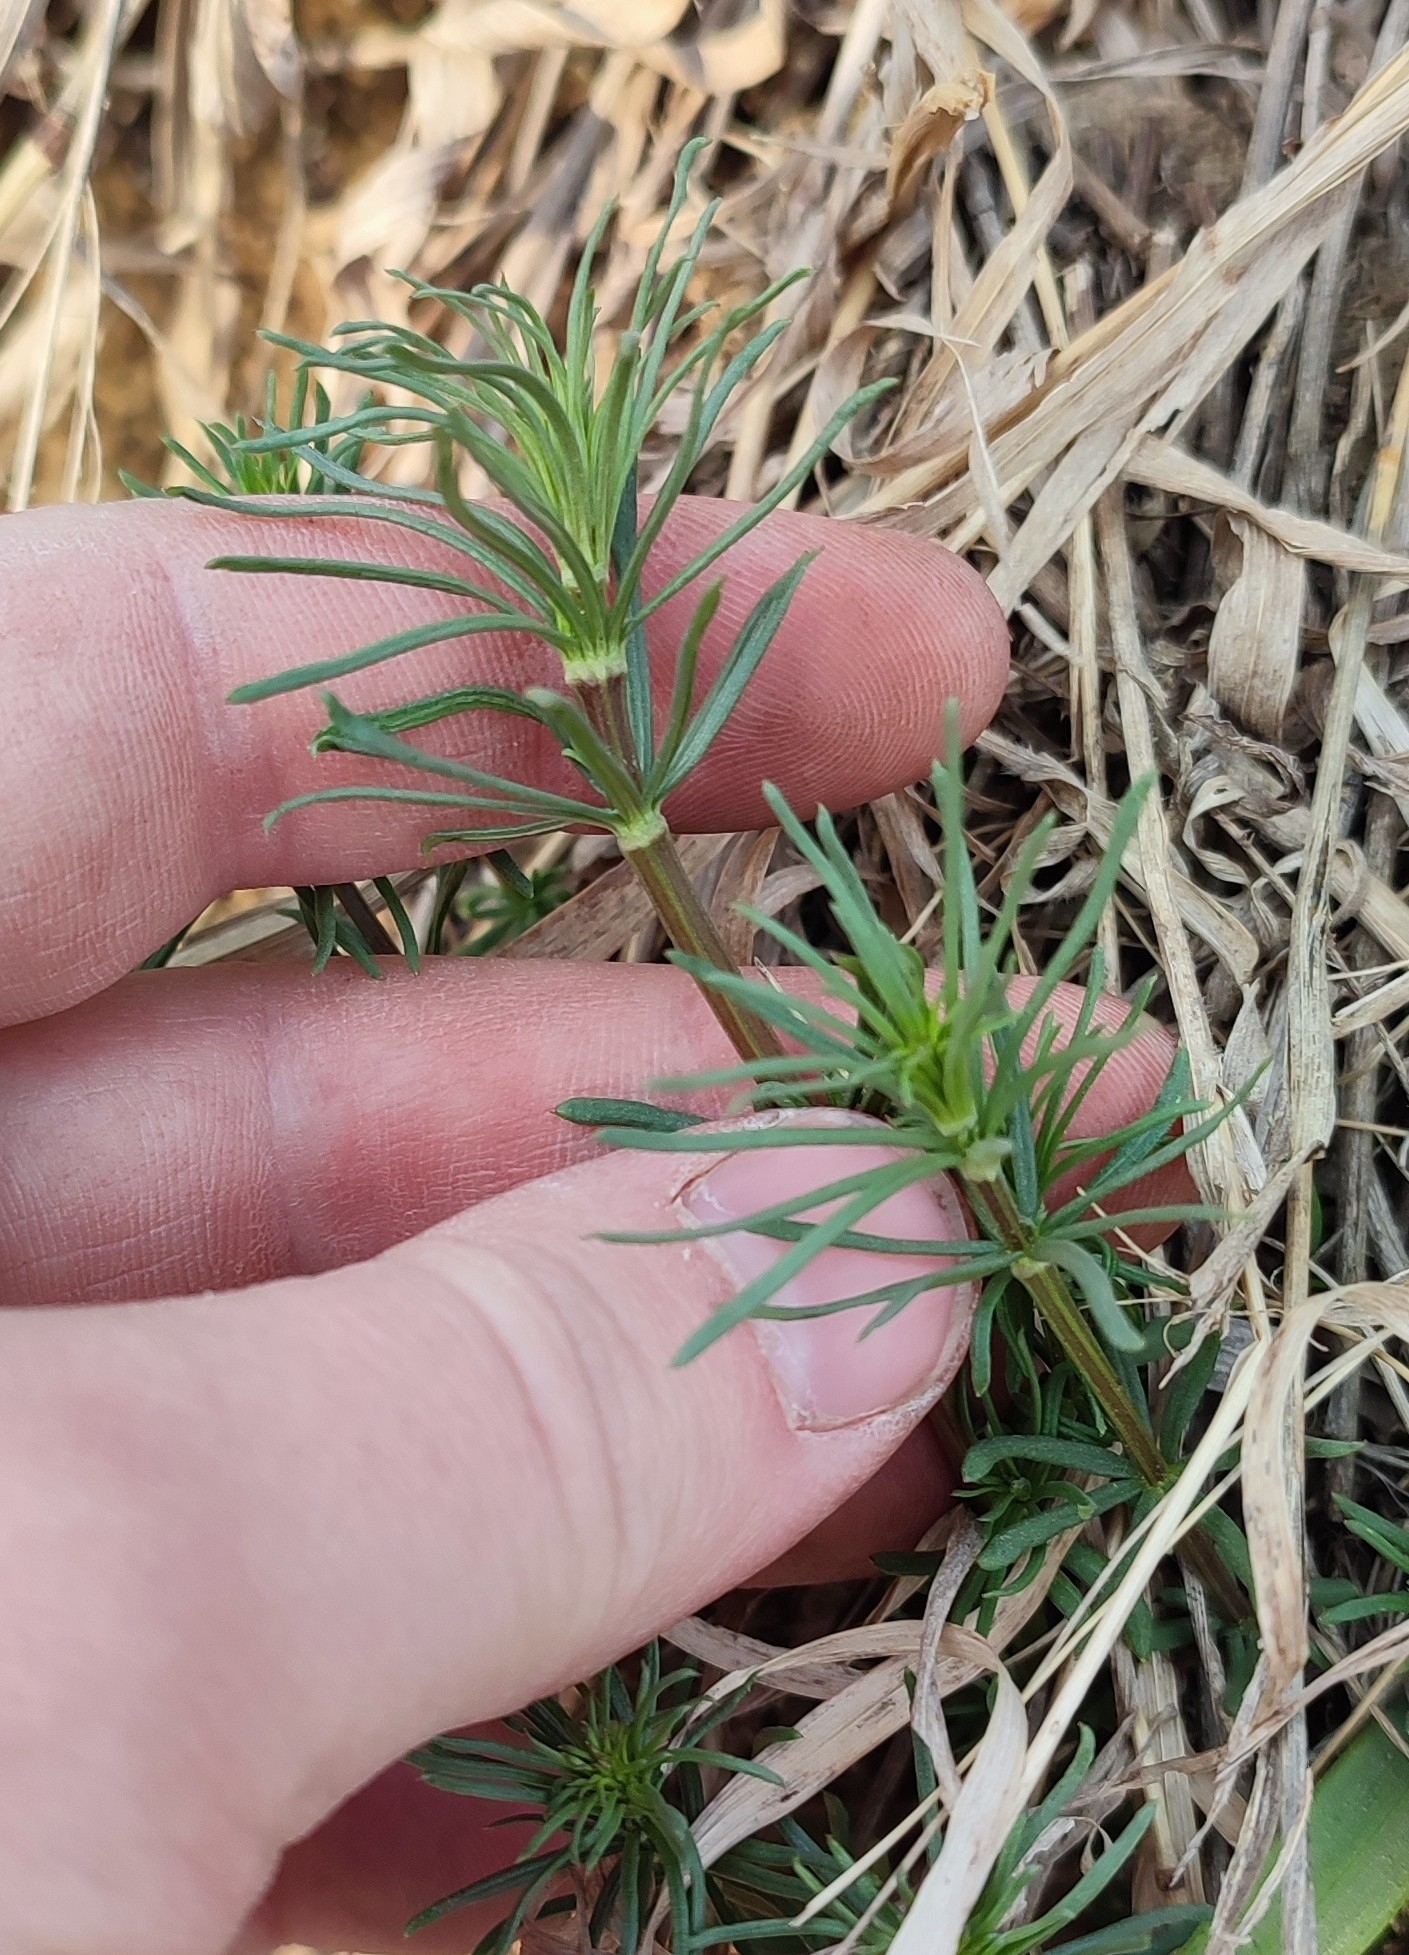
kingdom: Plantae
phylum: Tracheophyta
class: Magnoliopsida
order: Gentianales
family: Rubiaceae
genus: Galium
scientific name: Galium verum
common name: Lady's bedstraw
